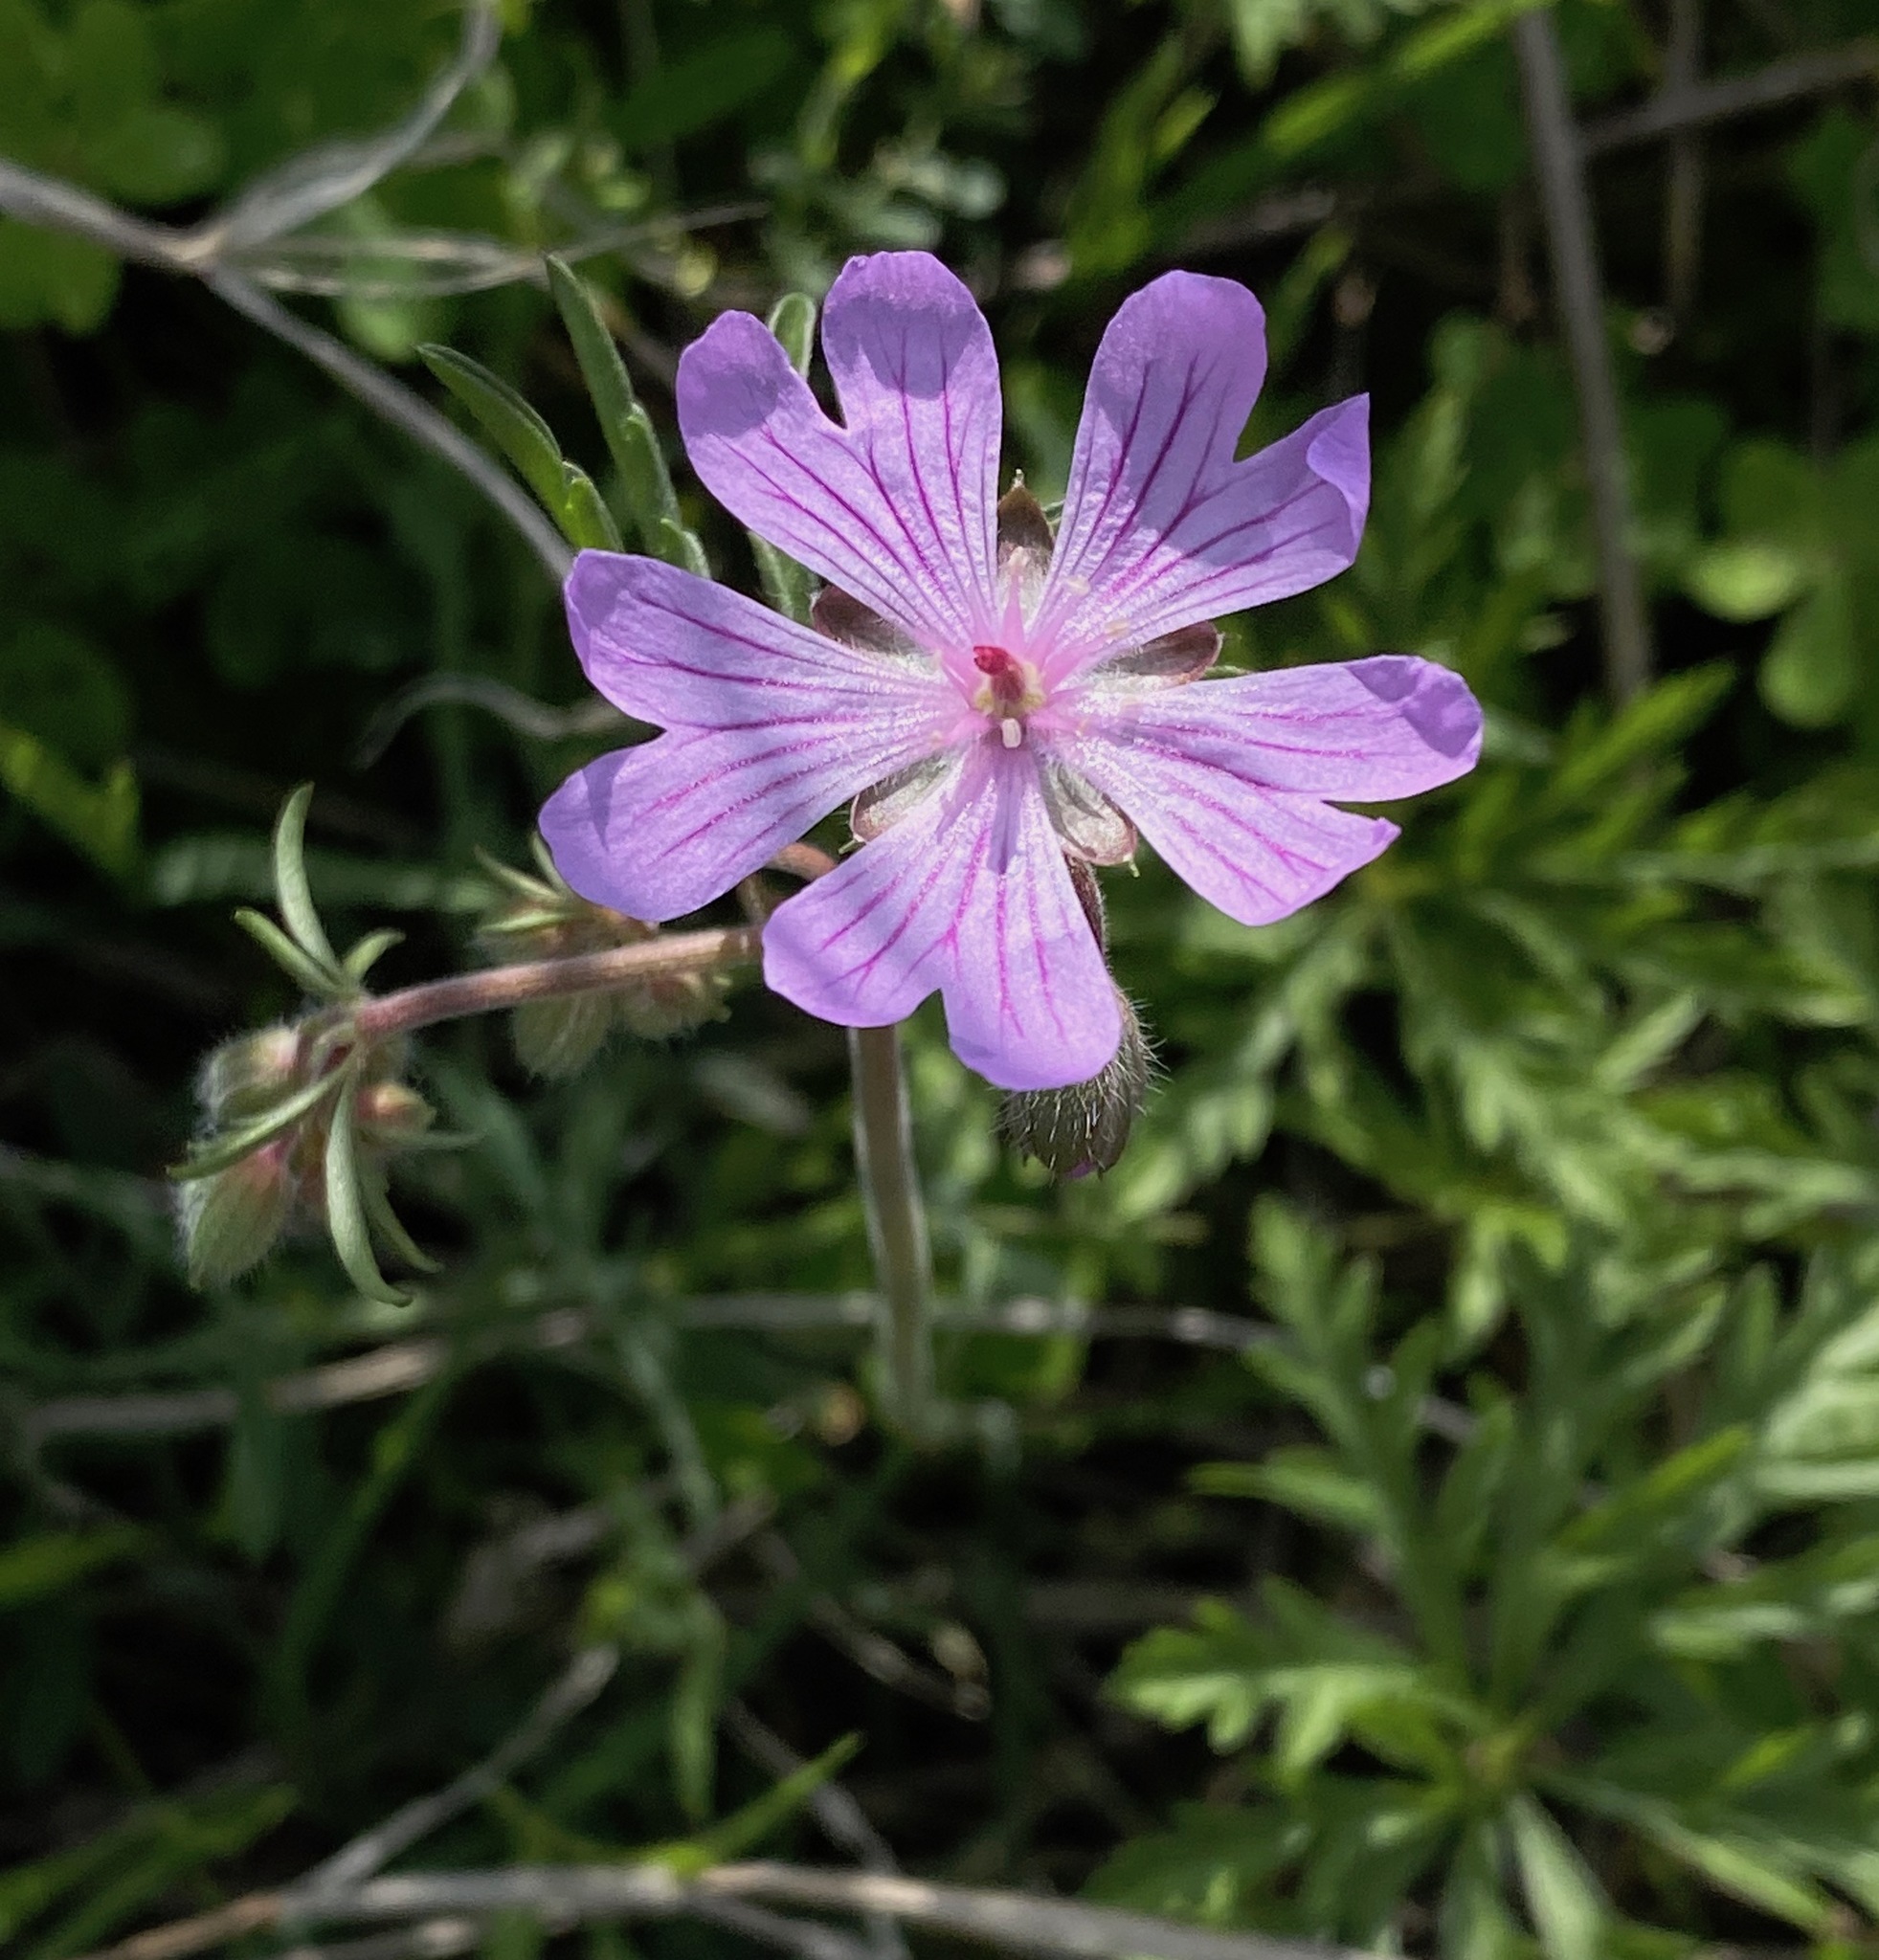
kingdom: Plantae
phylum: Tracheophyta
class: Magnoliopsida
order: Geraniales
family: Geraniaceae
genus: Geranium
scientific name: Geranium tuberosum
